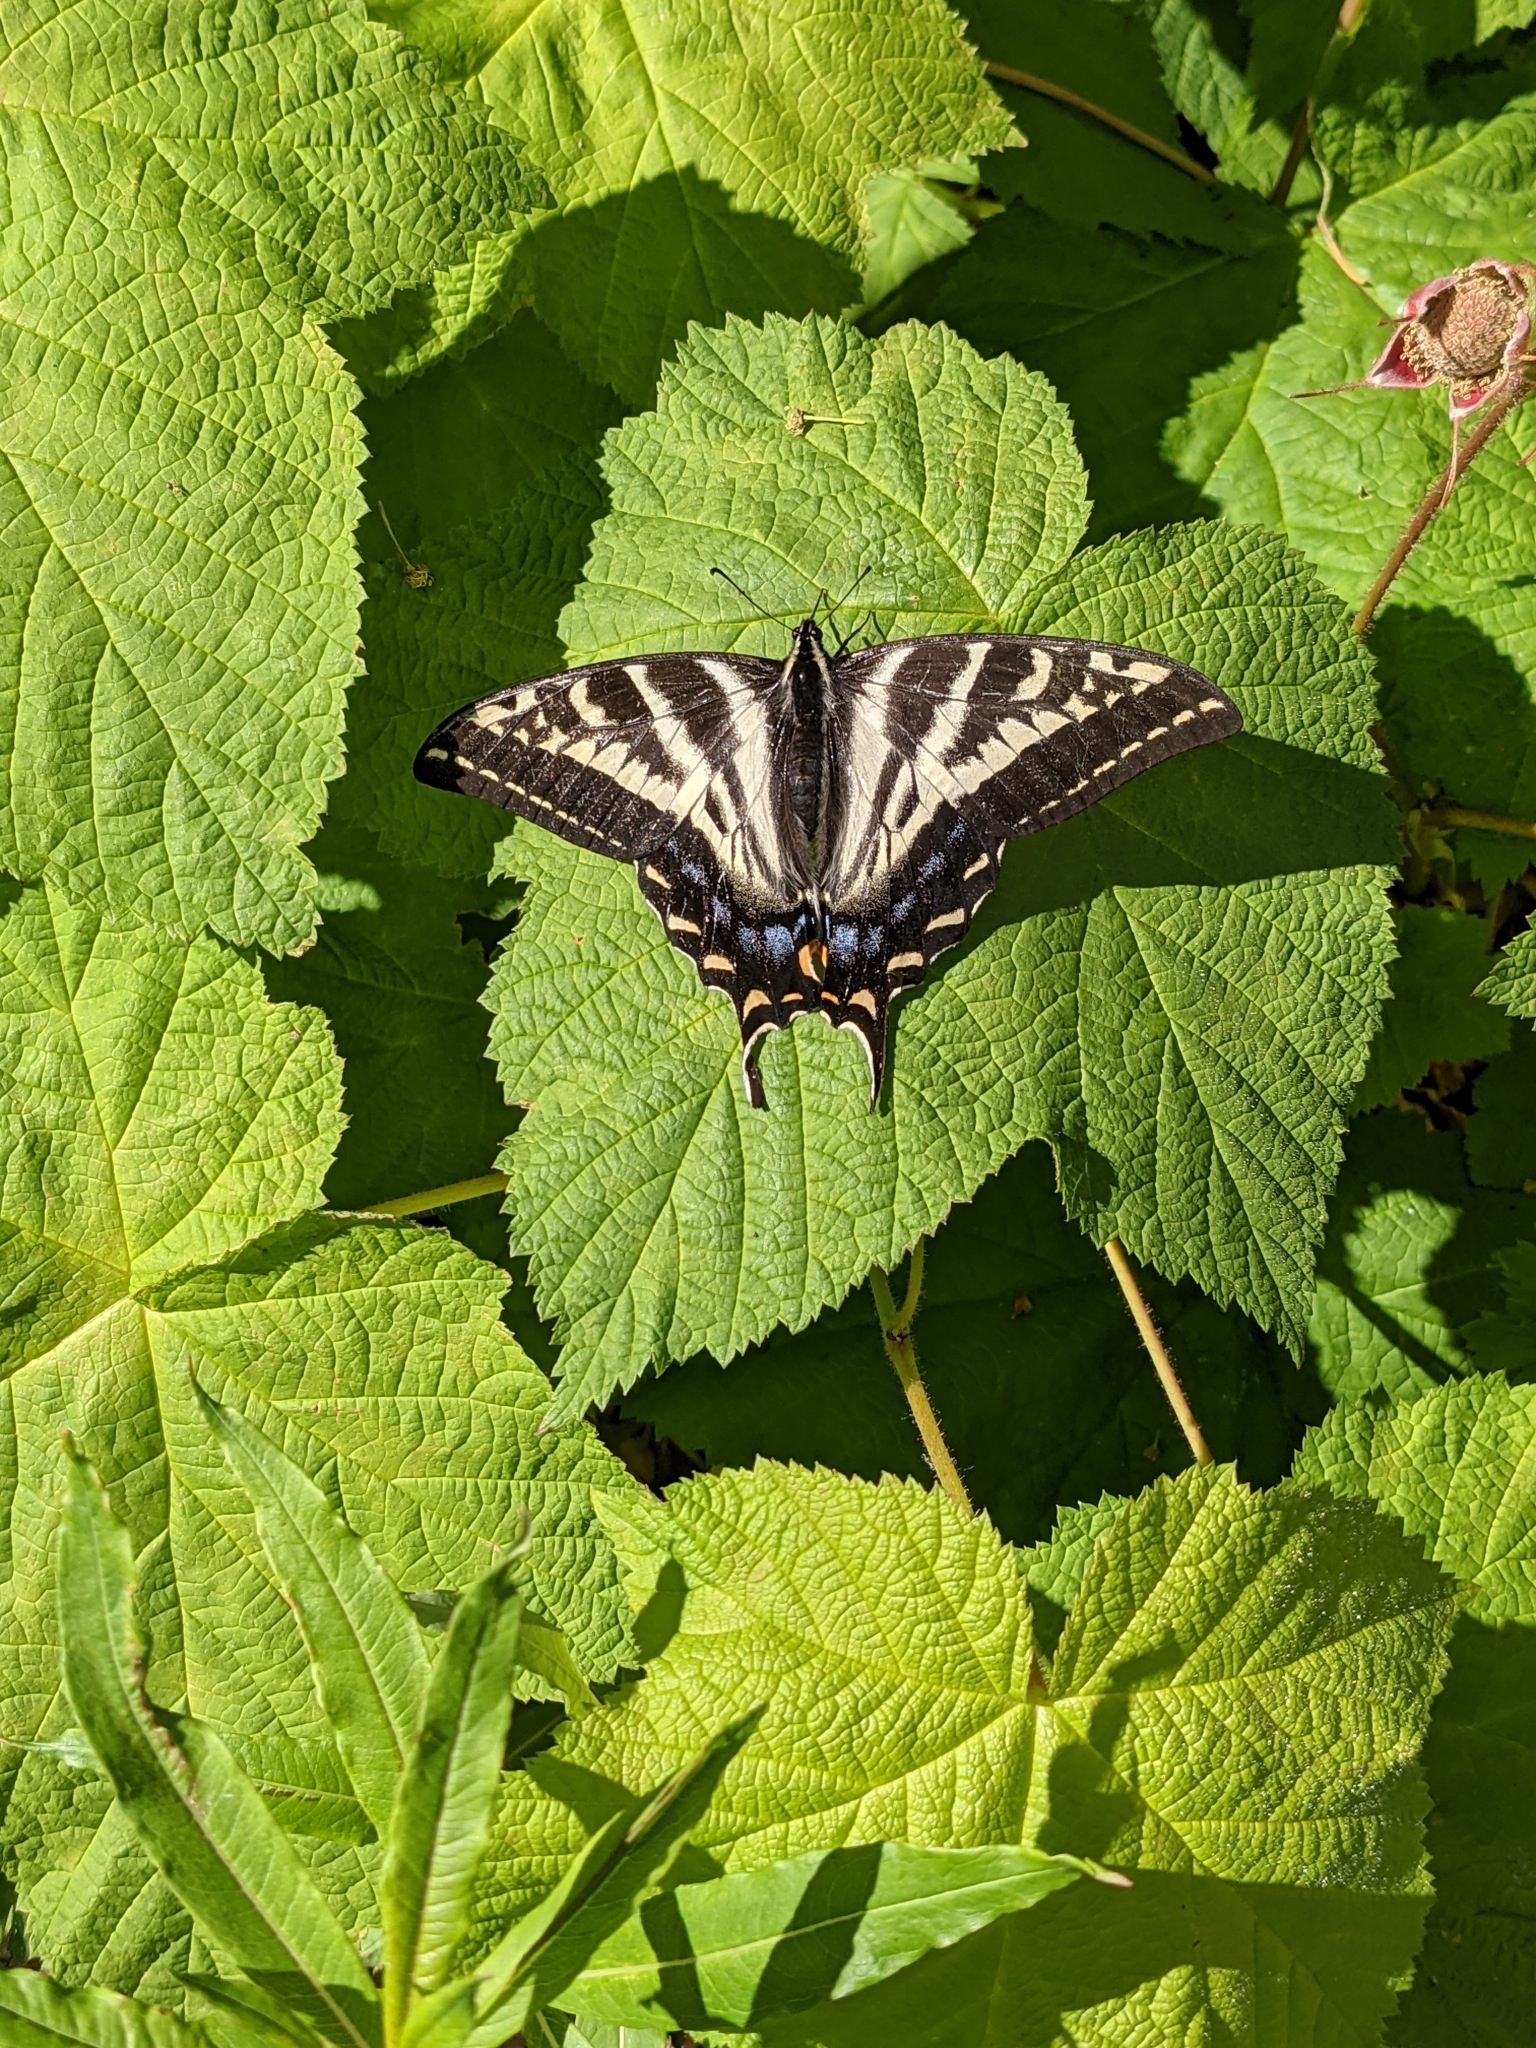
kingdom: Animalia
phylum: Arthropoda
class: Insecta
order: Lepidoptera
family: Papilionidae
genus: Papilio
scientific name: Papilio eurymedon
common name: Pale tiger swallowtail
